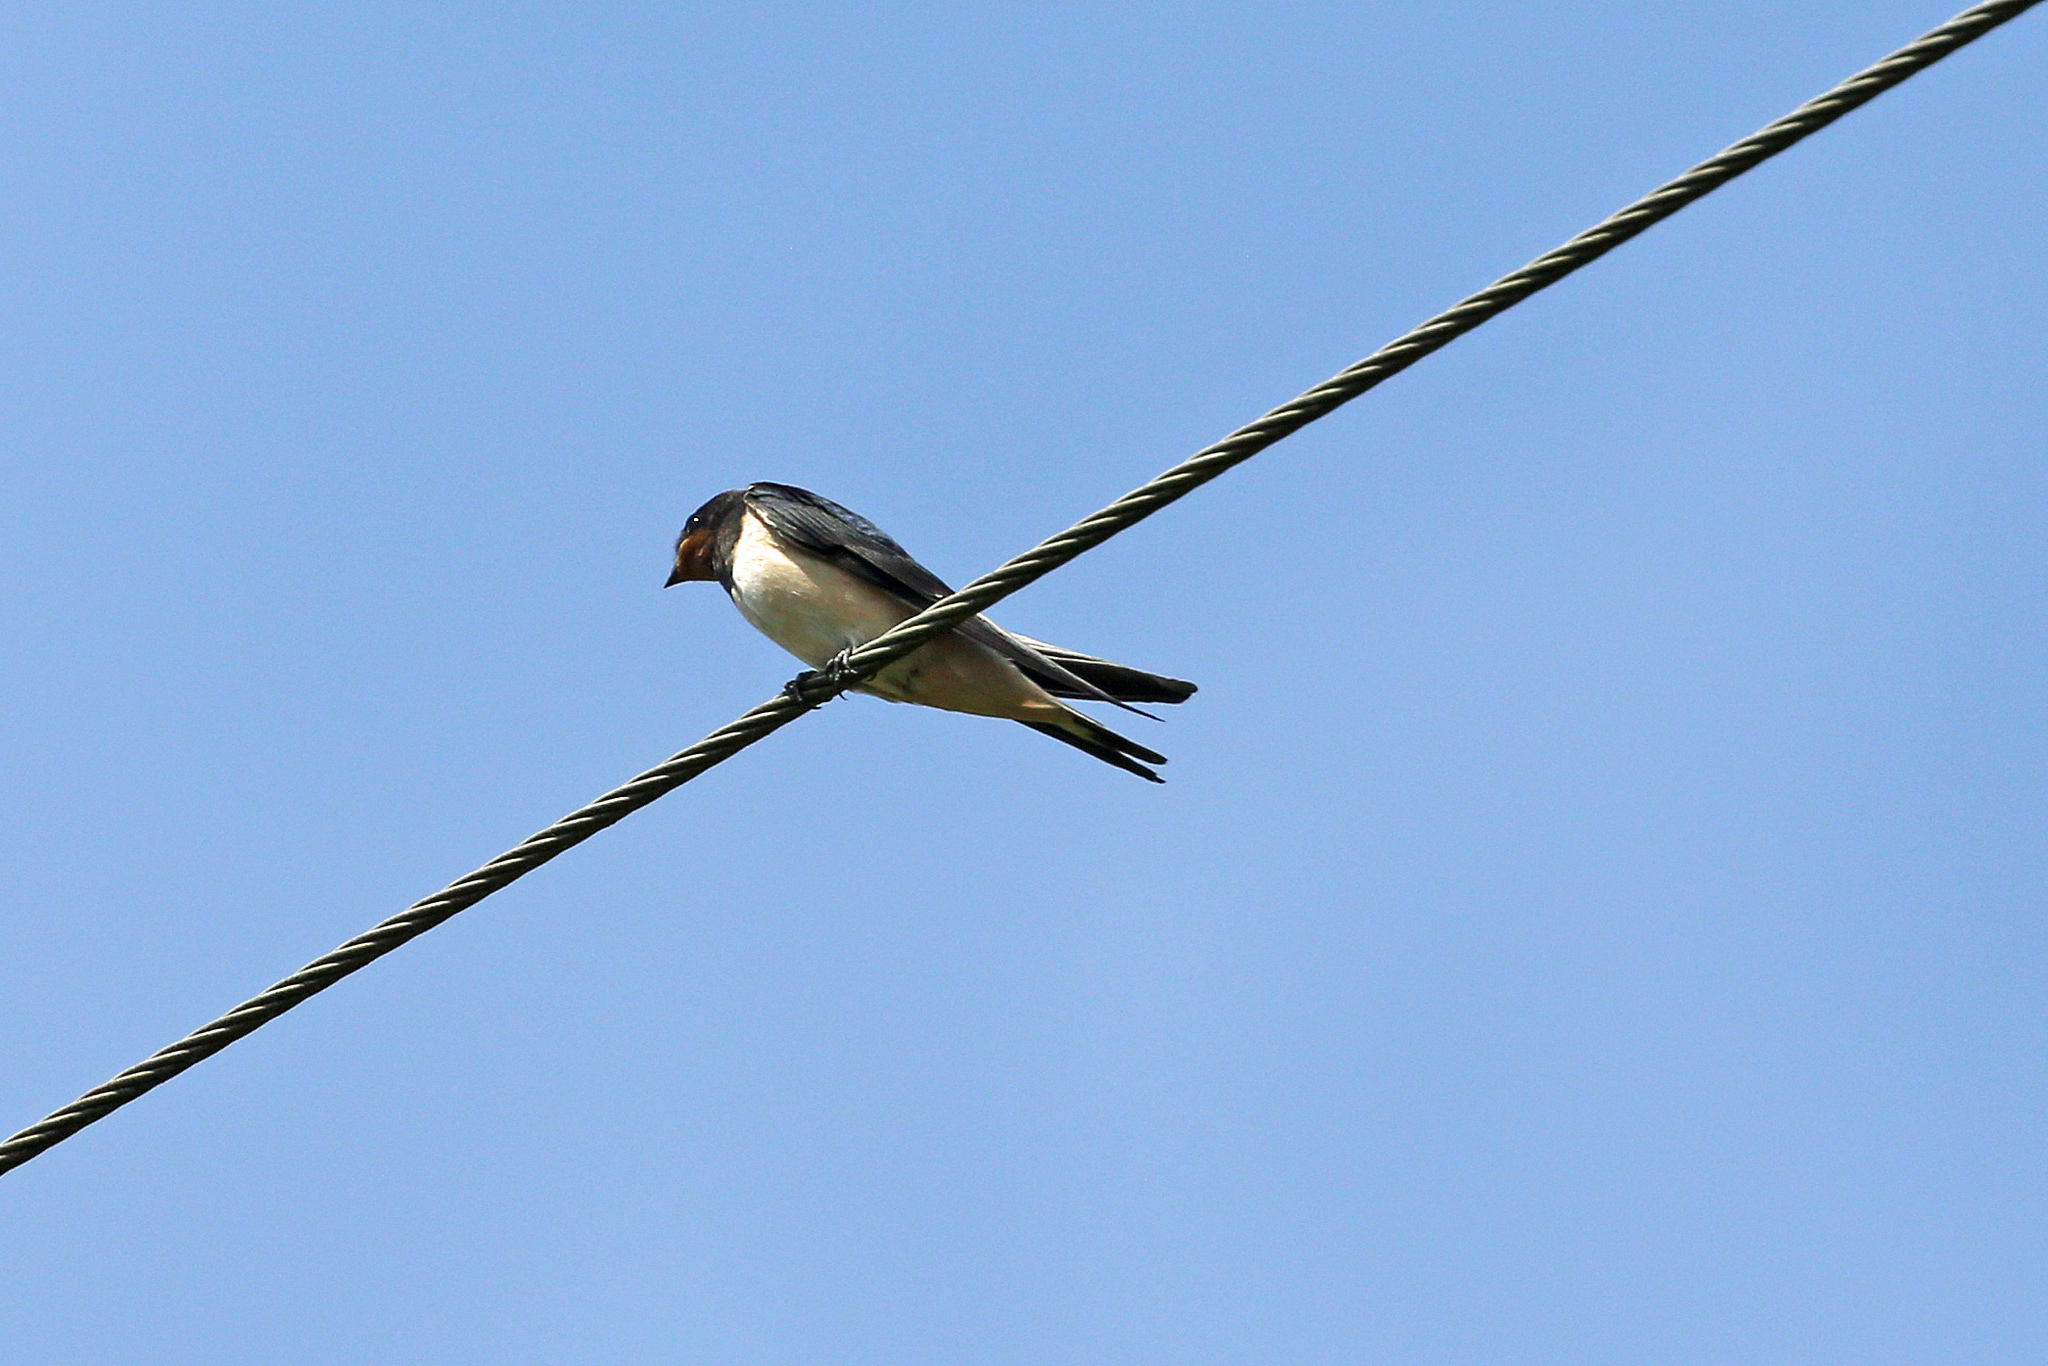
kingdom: Animalia
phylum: Chordata
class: Aves
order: Passeriformes
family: Hirundinidae
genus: Hirundo
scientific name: Hirundo rustica
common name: Barn swallow
